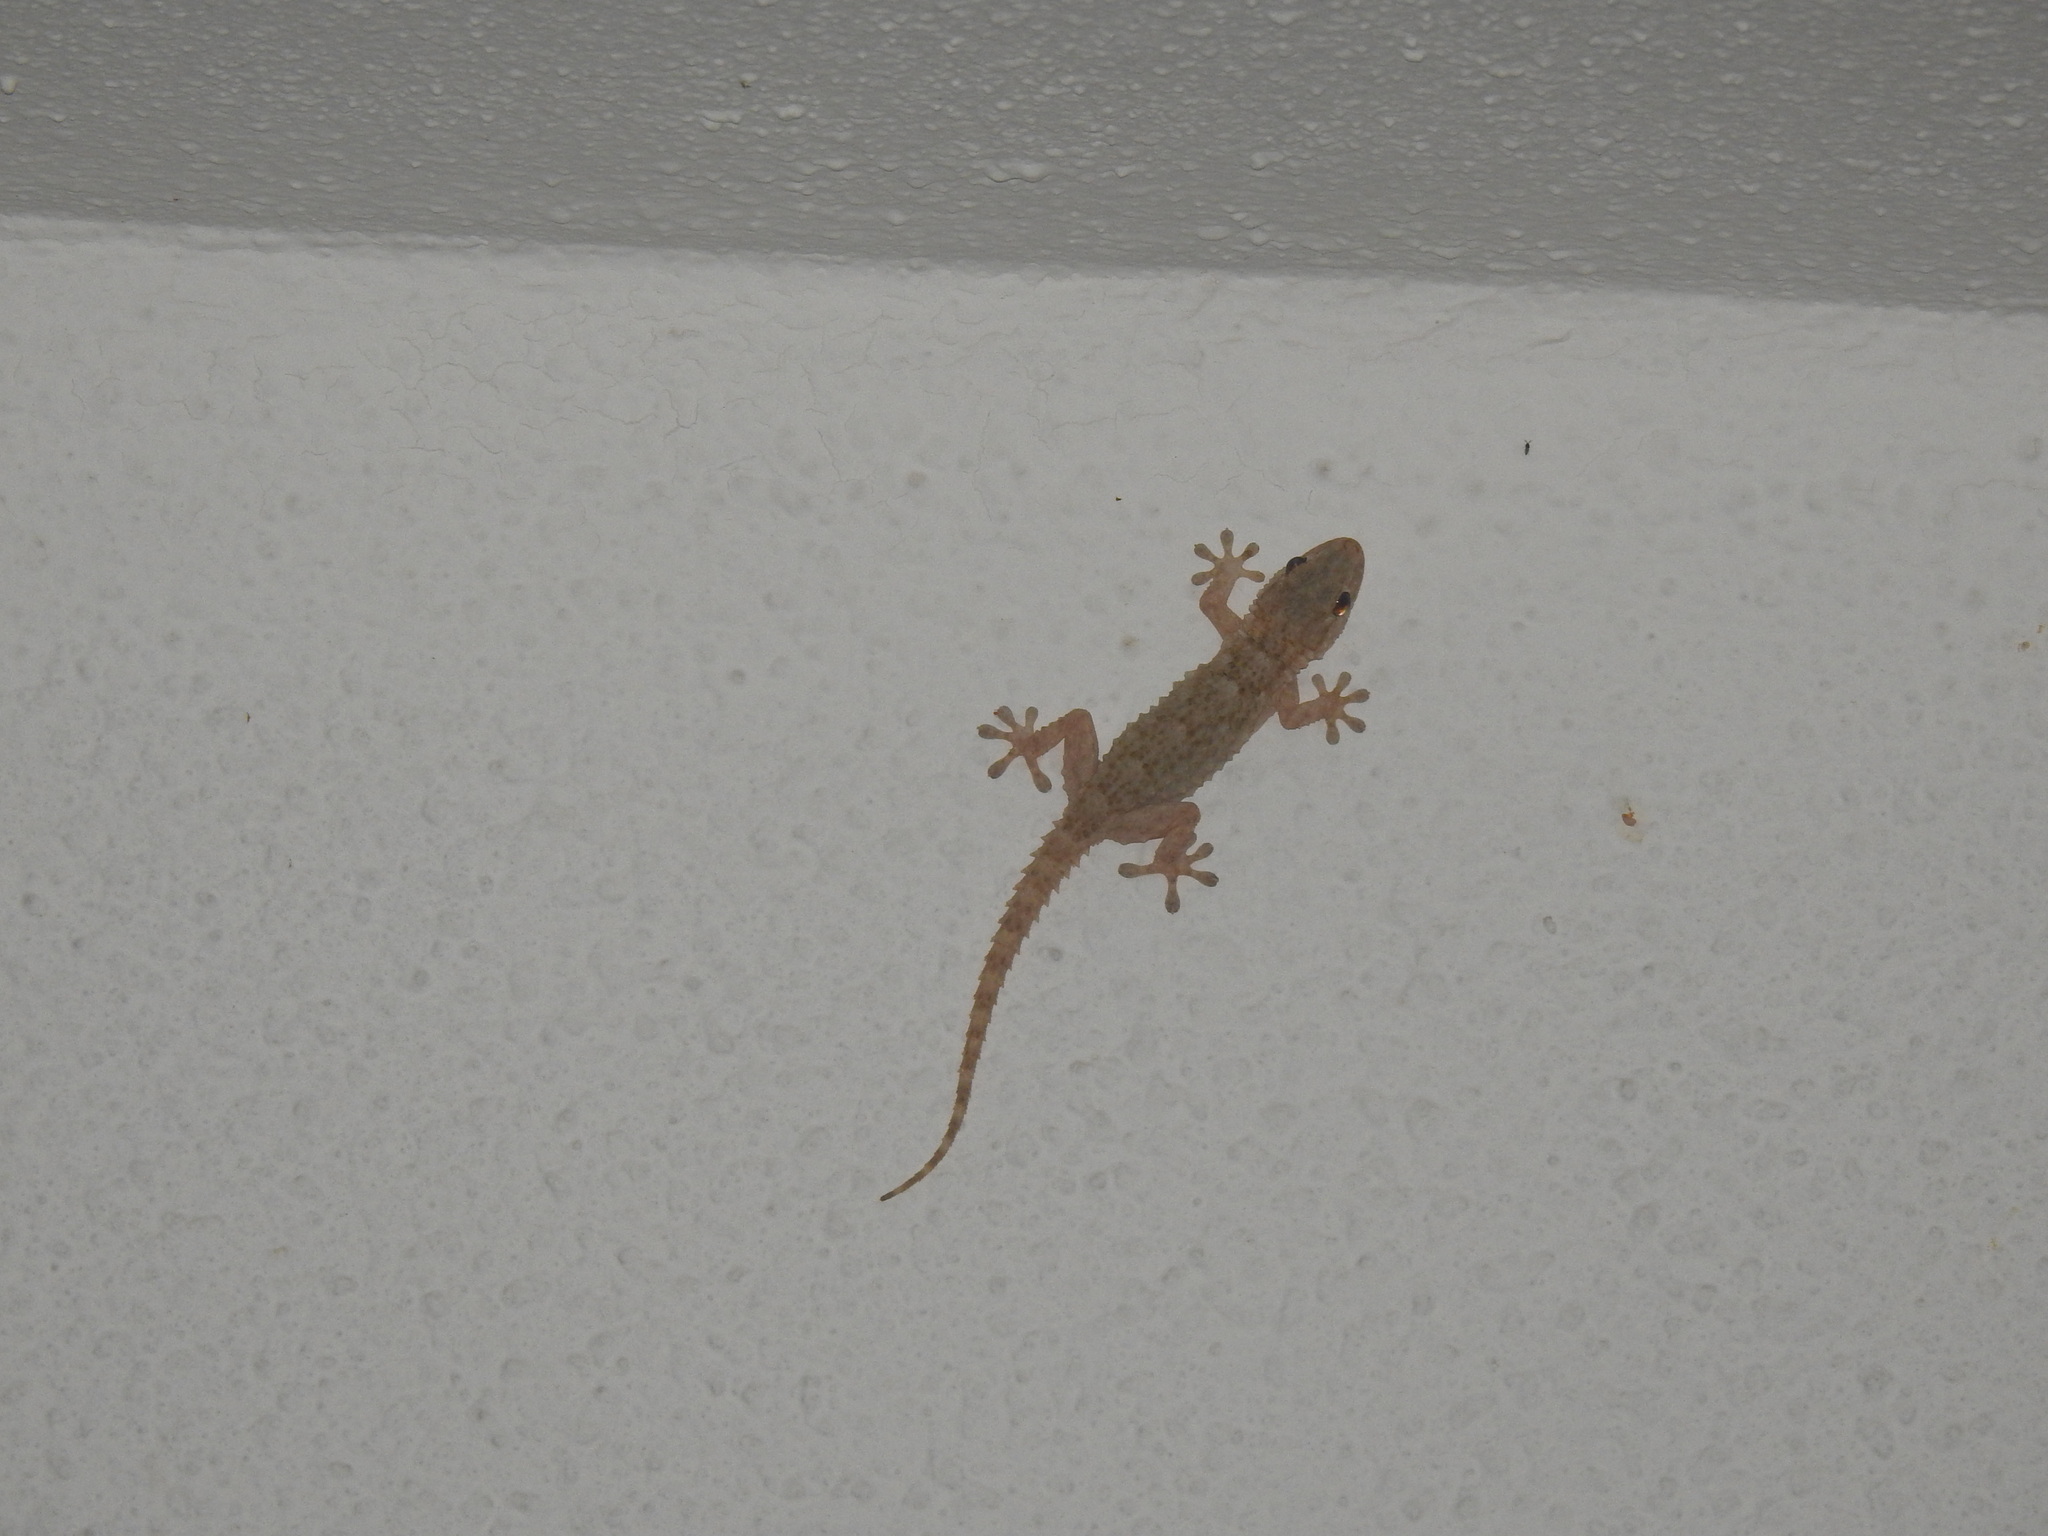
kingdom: Animalia
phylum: Chordata
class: Squamata
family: Phyllodactylidae
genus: Tarentola
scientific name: Tarentola mauritanica
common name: Moorish gecko
